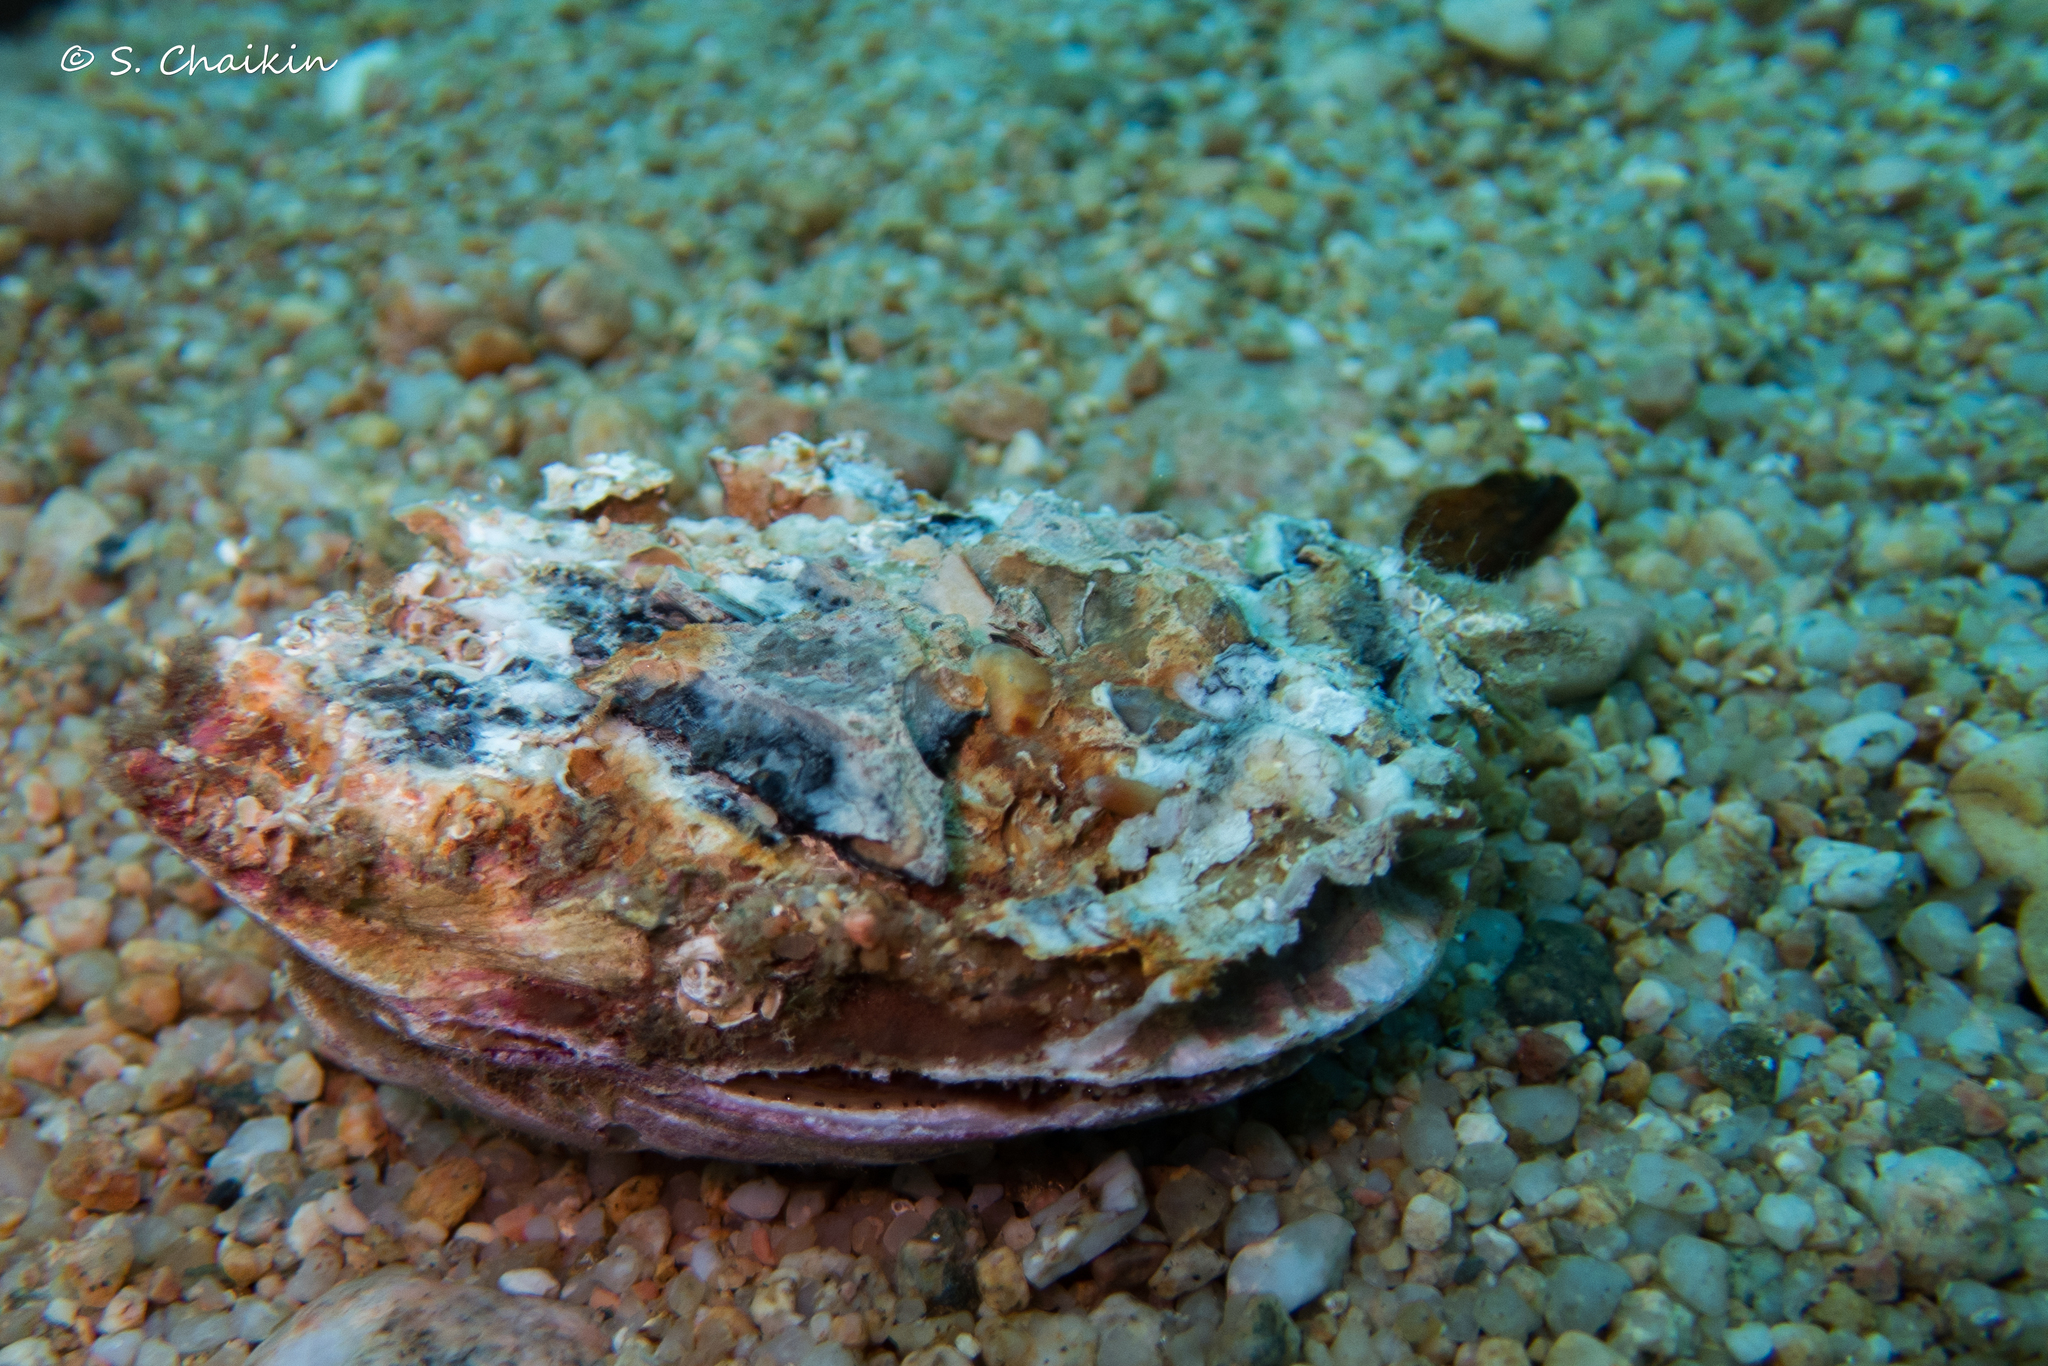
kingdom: Animalia
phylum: Mollusca
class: Bivalvia
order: Pectinida
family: Spondylidae
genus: Spondylus
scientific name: Spondylus gaederopus
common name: European thorny oyster
